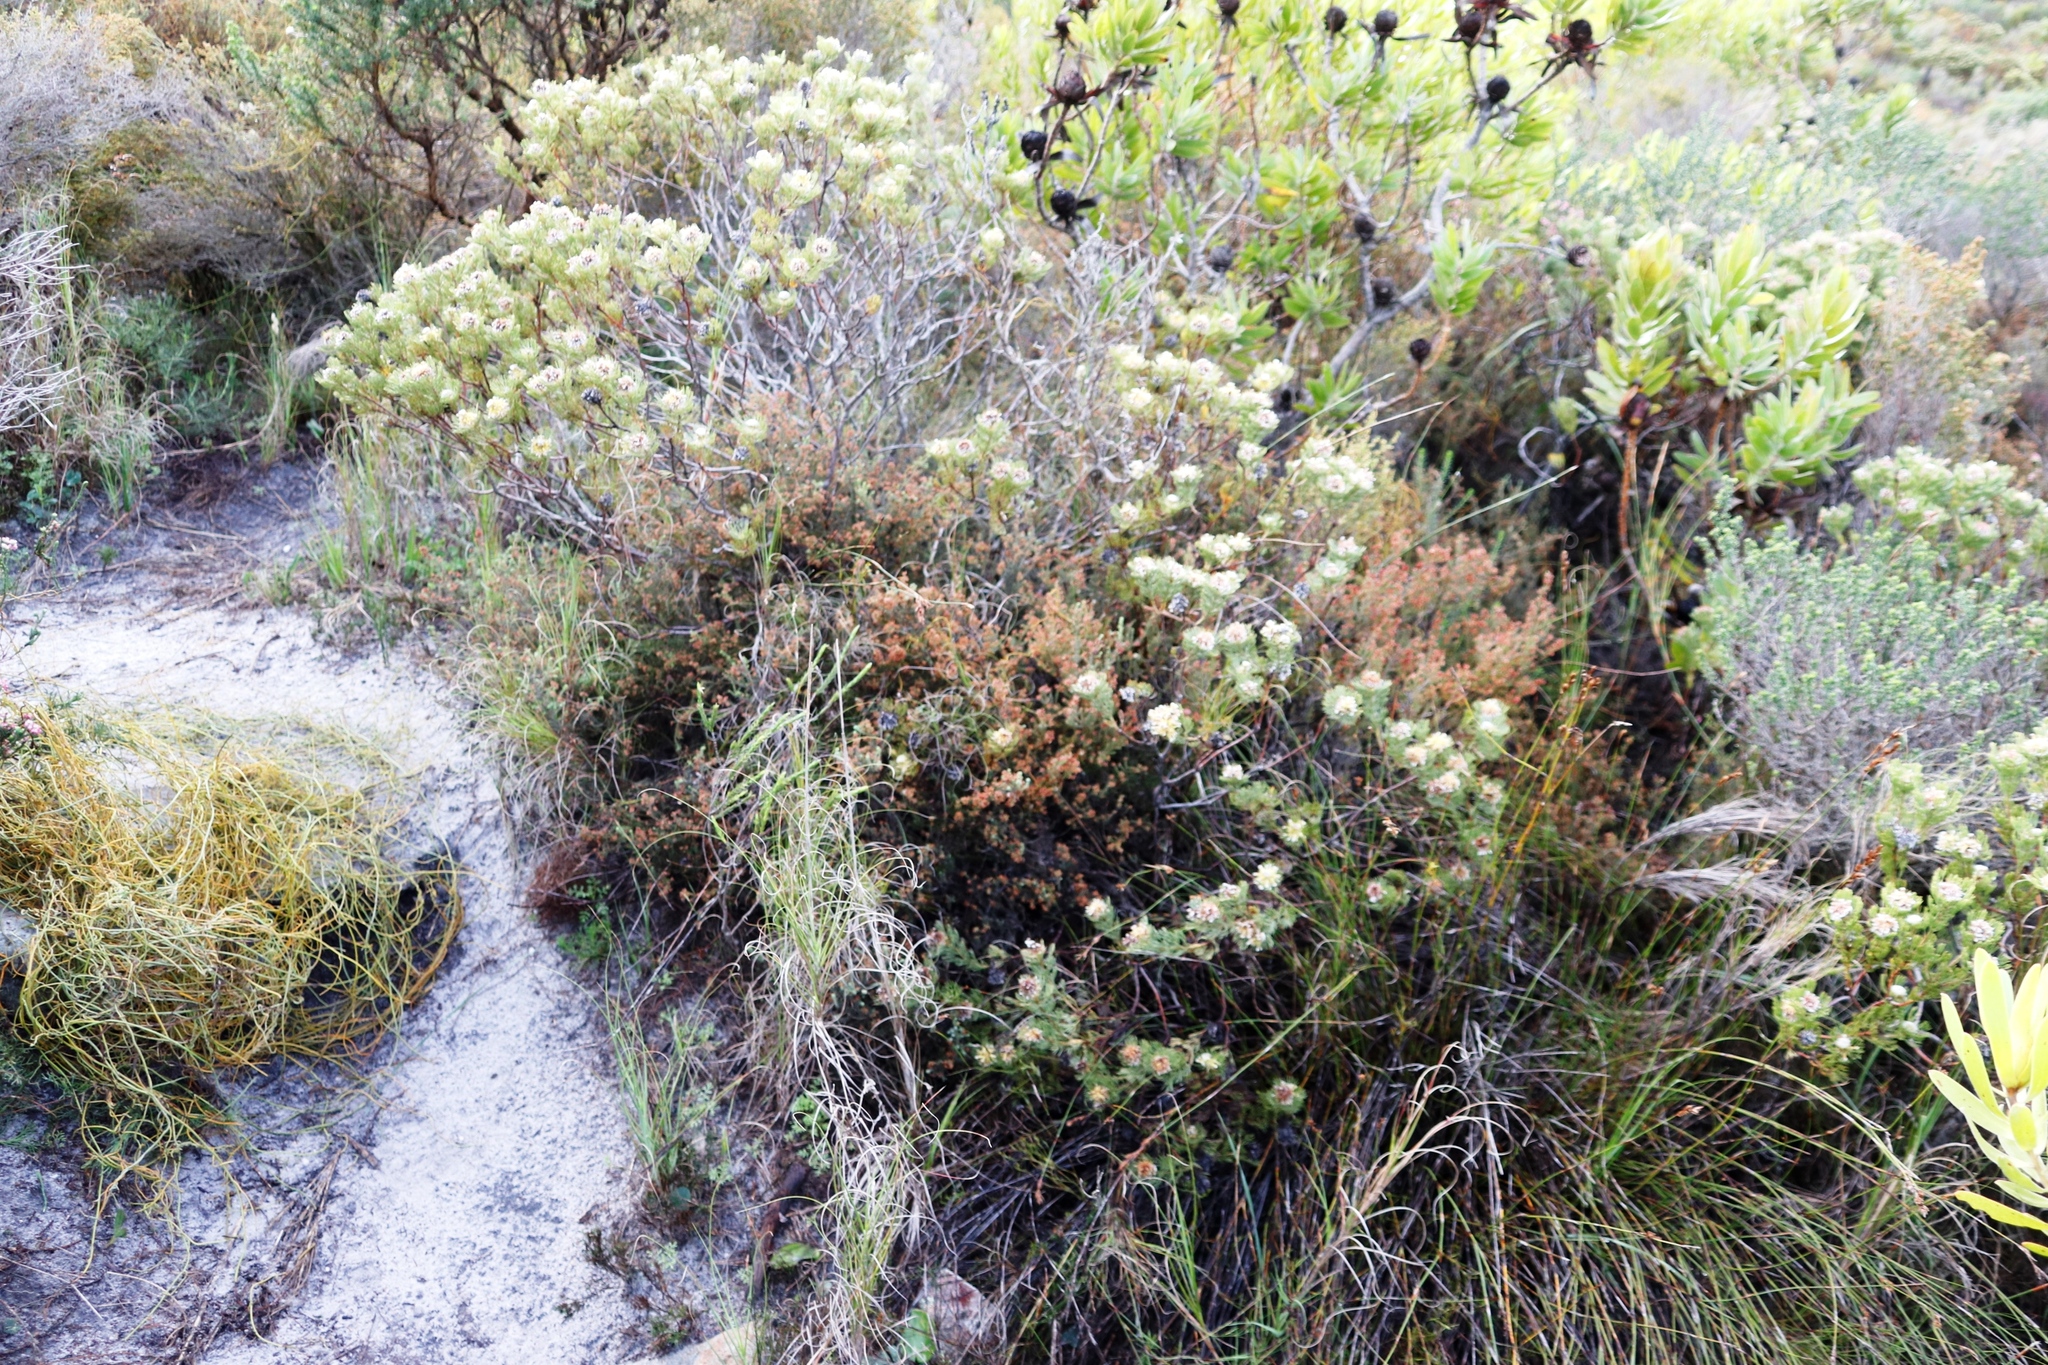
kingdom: Plantae
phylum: Tracheophyta
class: Magnoliopsida
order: Proteales
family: Proteaceae
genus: Serruria
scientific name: Serruria villosa
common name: Golden spiderhead
